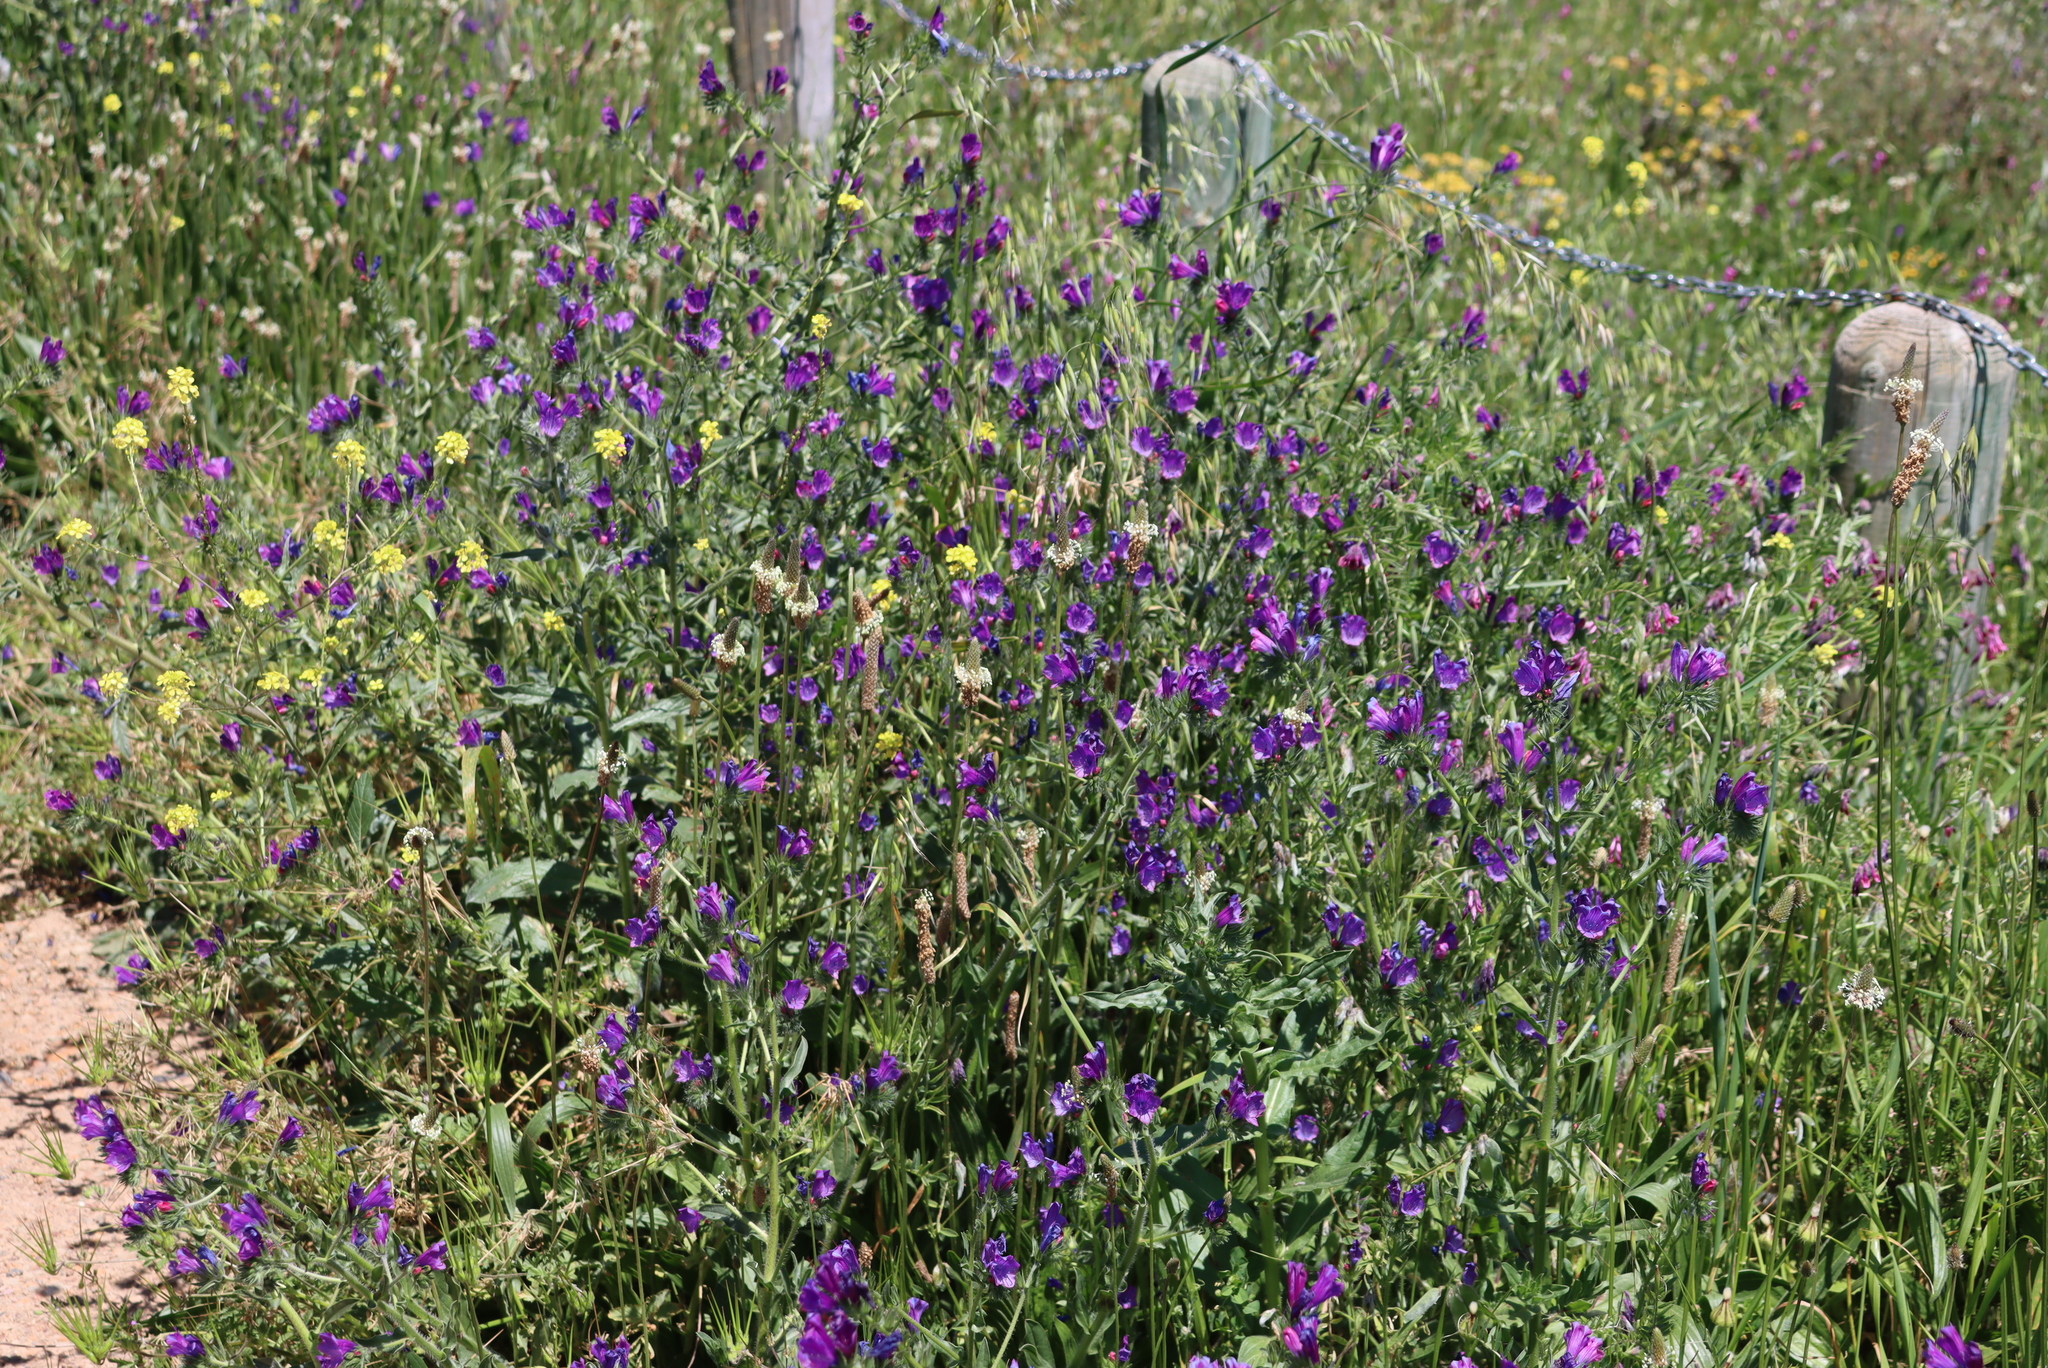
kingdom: Plantae
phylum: Tracheophyta
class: Magnoliopsida
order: Boraginales
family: Boraginaceae
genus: Echium
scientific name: Echium plantagineum
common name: Purple viper's-bugloss
